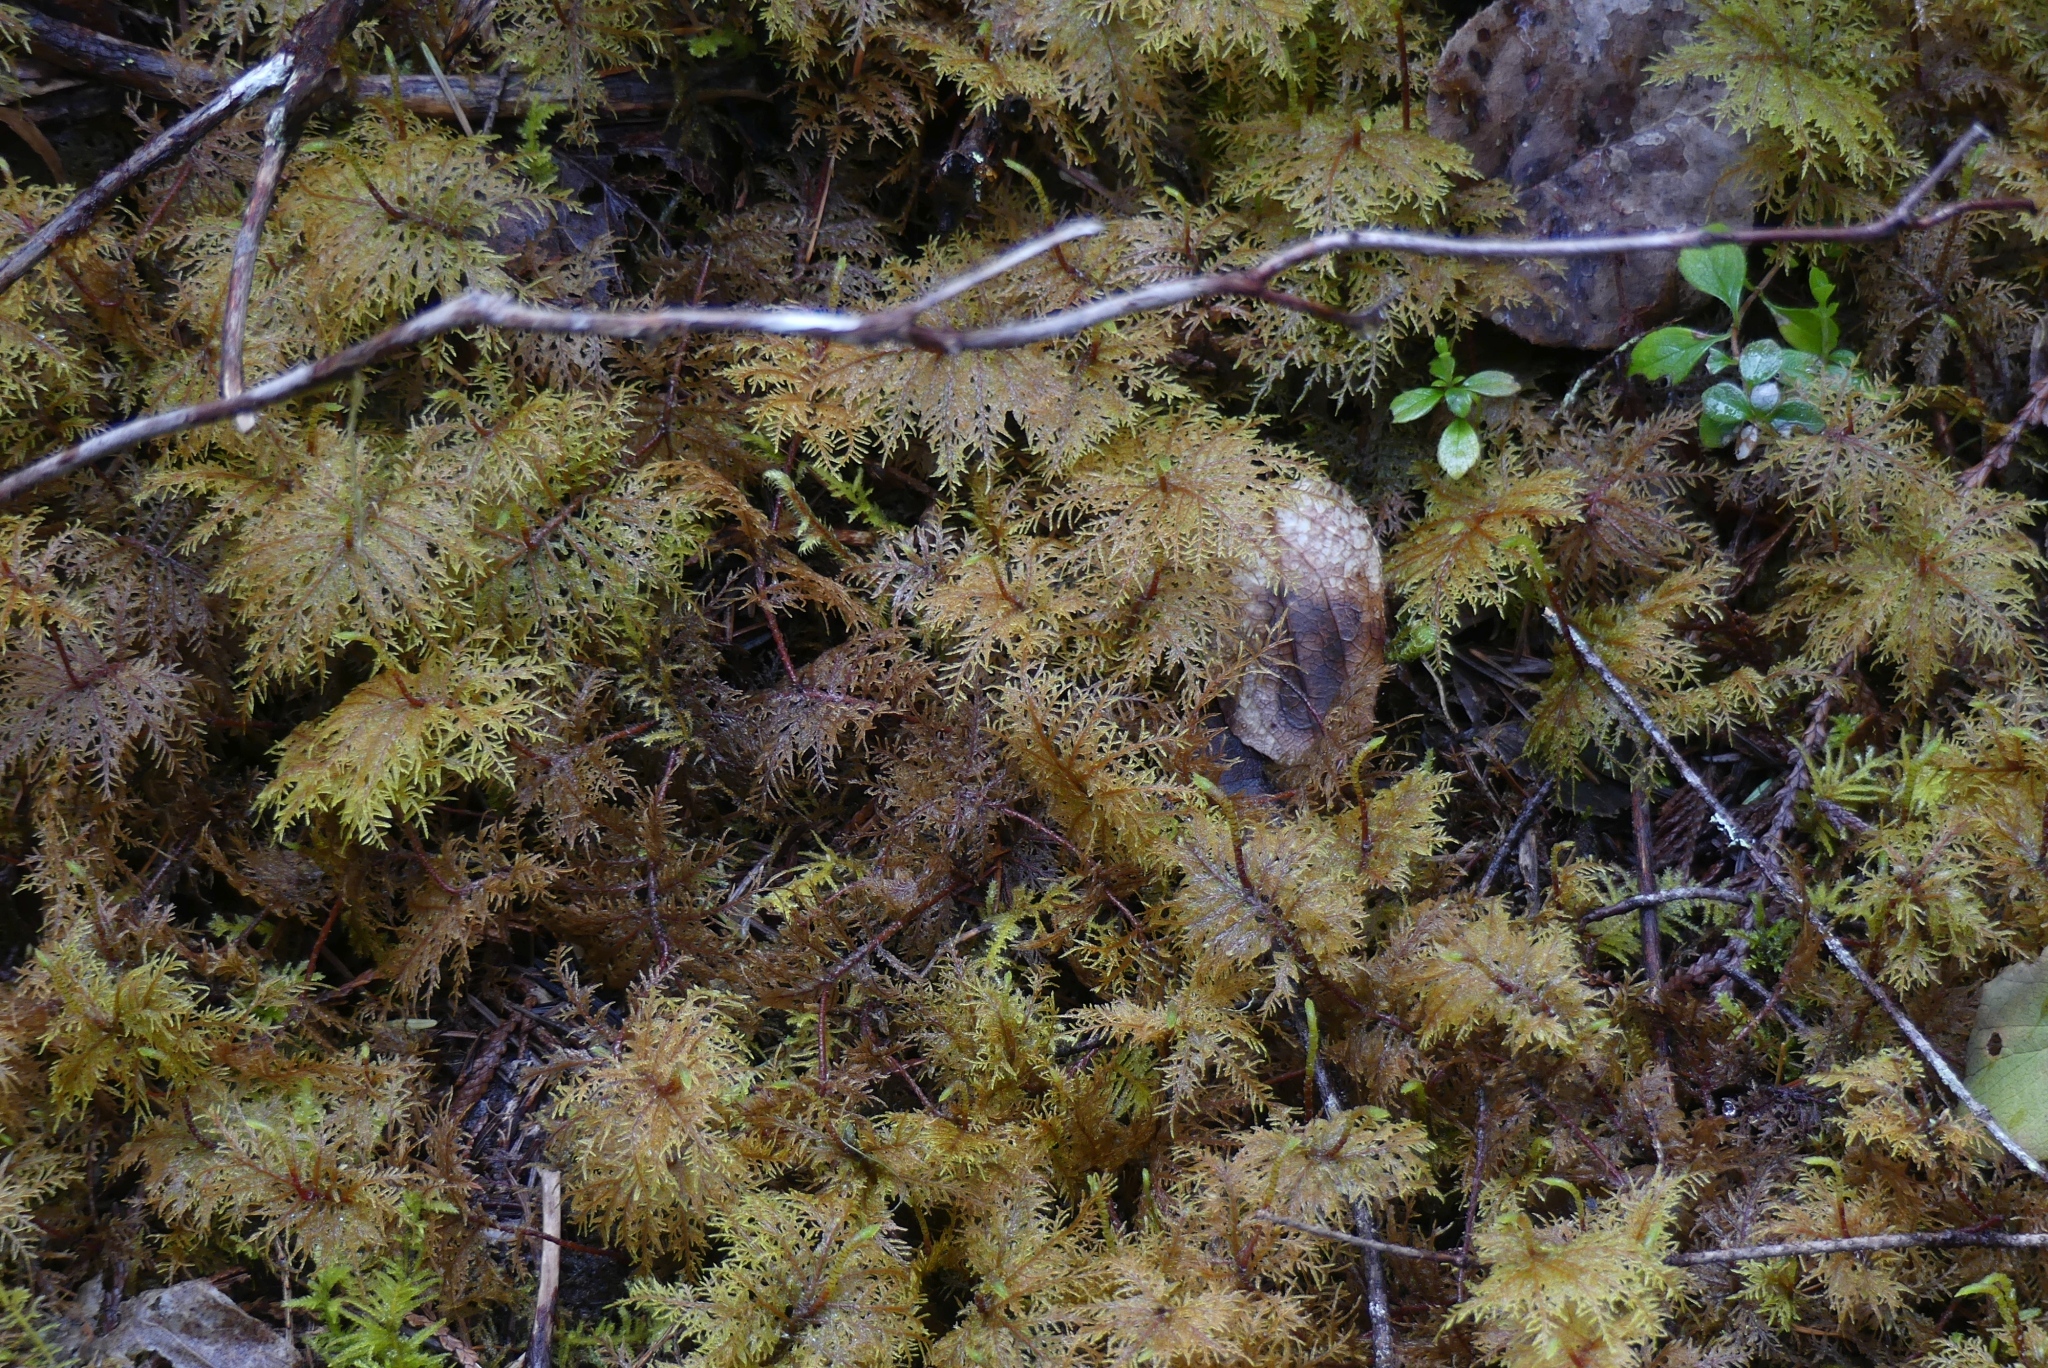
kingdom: Plantae
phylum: Bryophyta
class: Bryopsida
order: Hypnales
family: Hylocomiaceae
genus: Hylocomium
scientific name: Hylocomium splendens
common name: Stairstep moss
